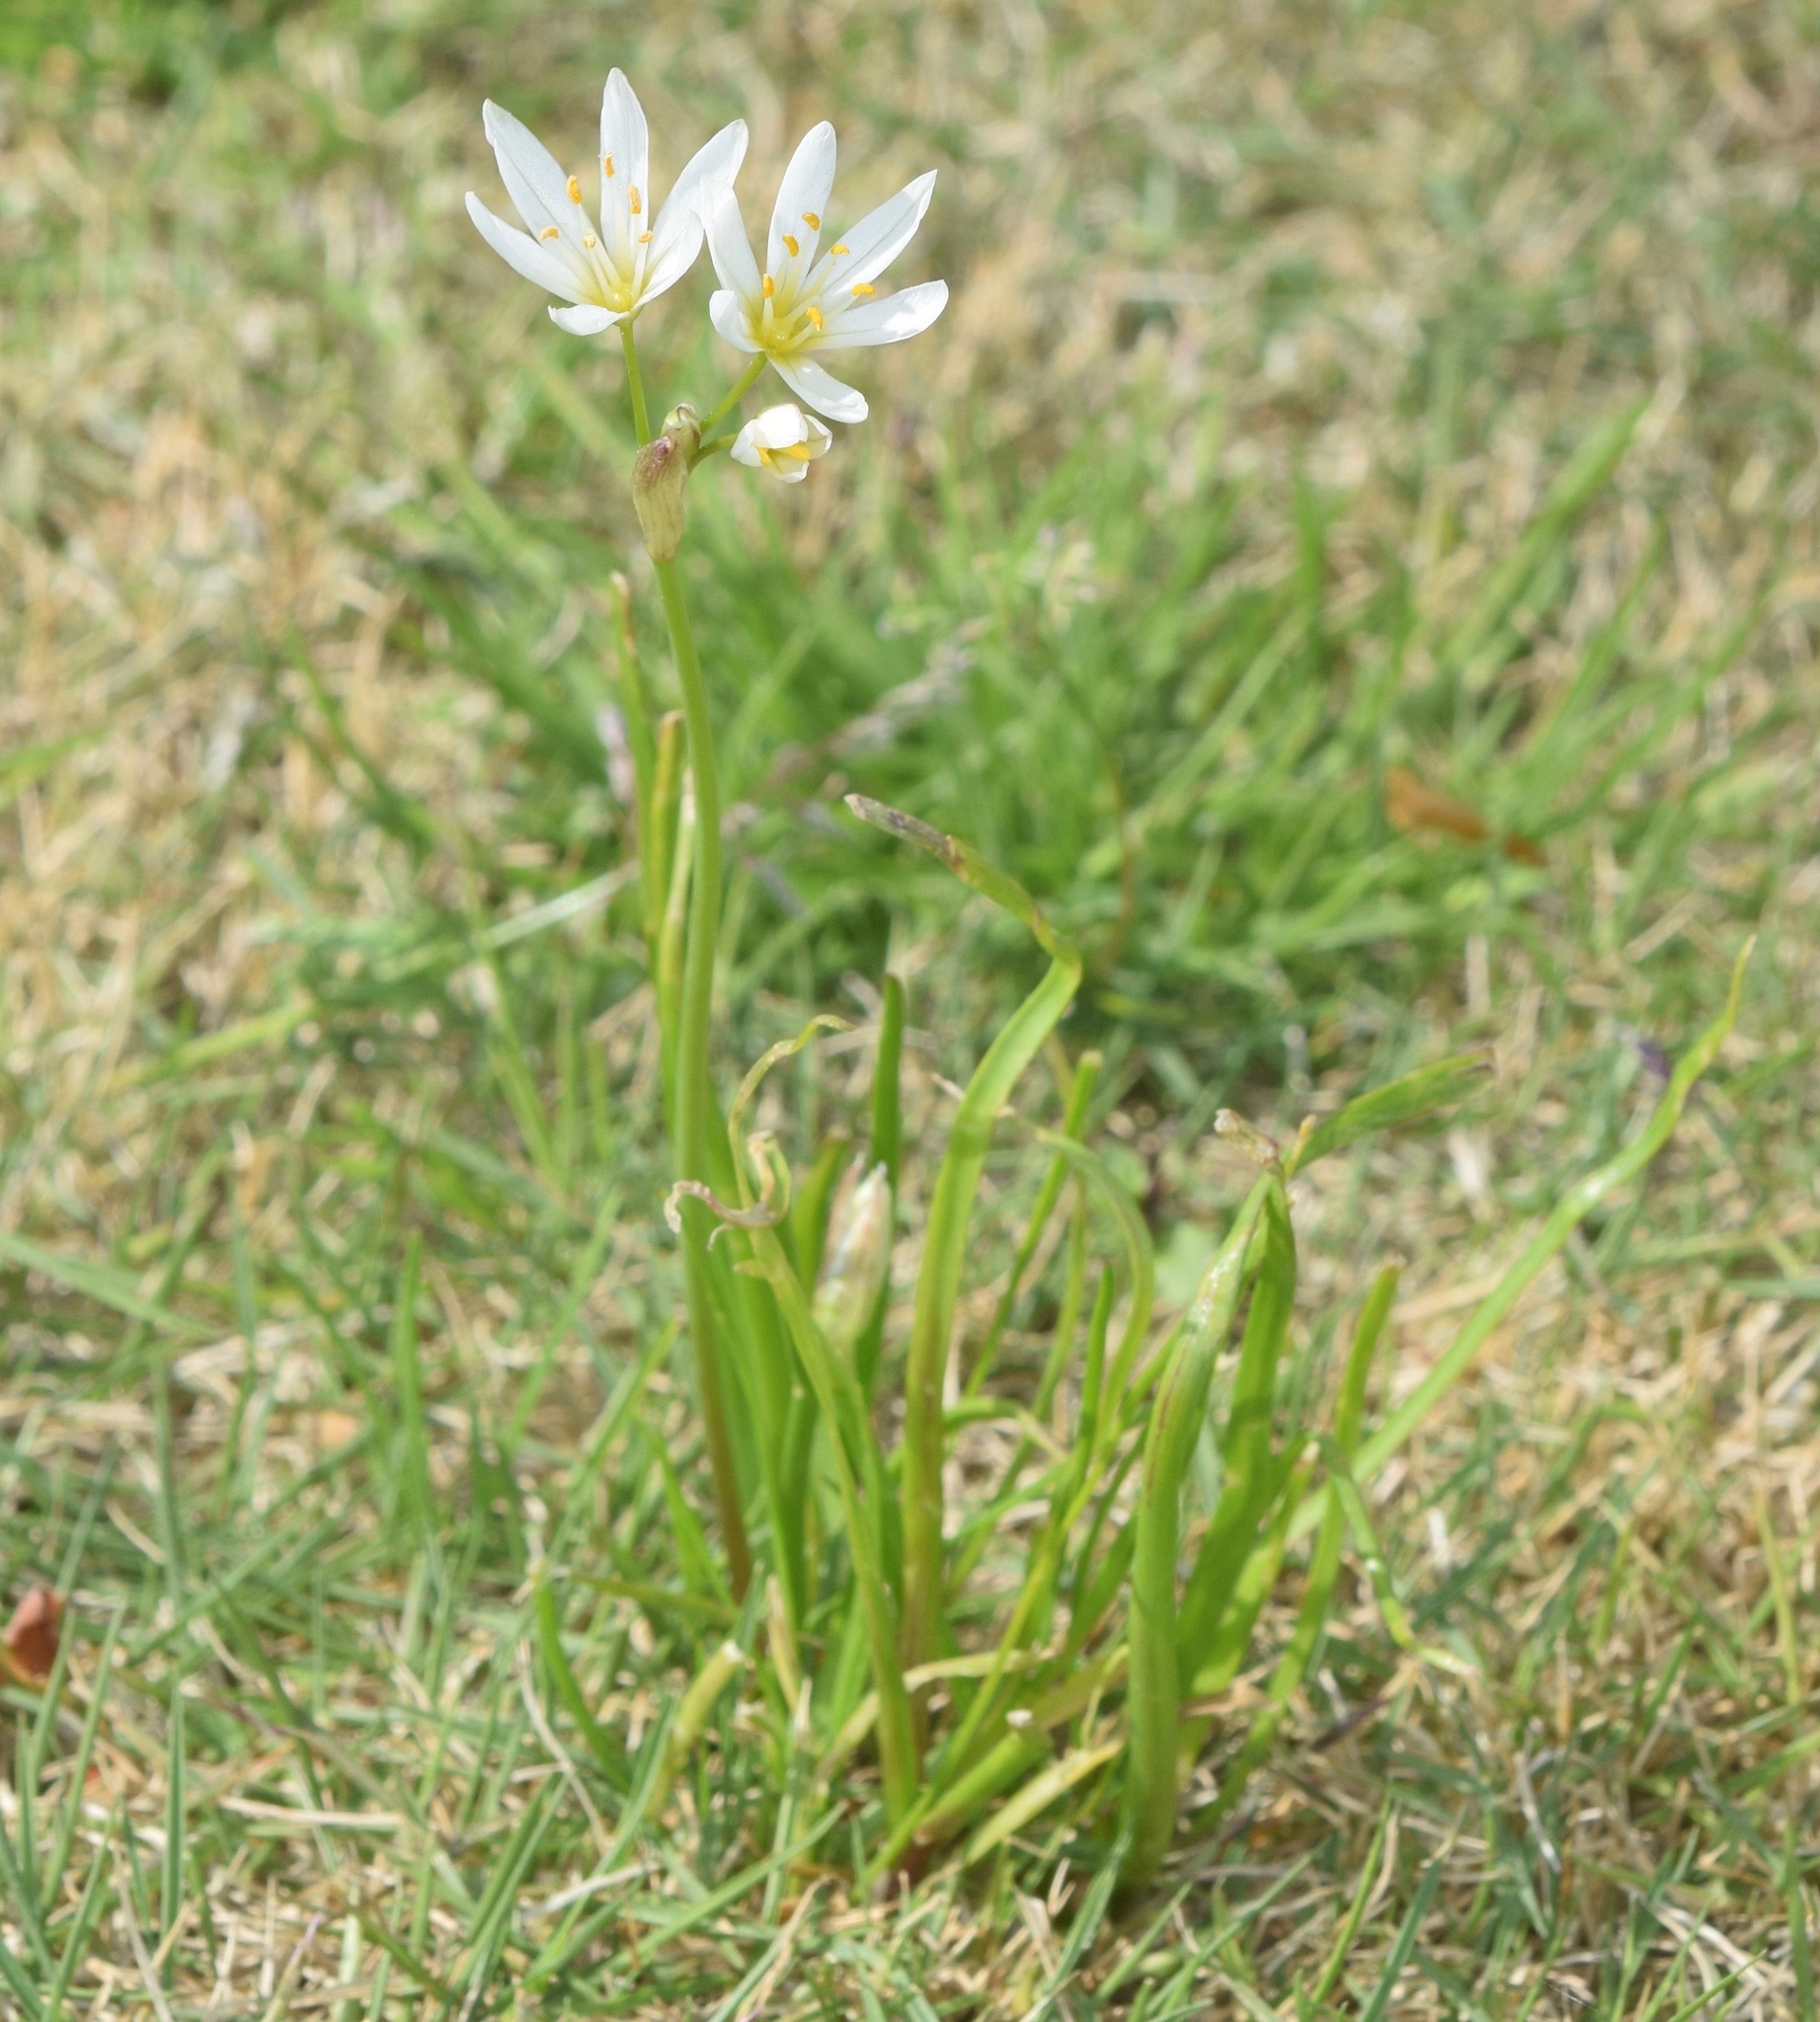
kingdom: Plantae
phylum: Tracheophyta
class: Liliopsida
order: Asparagales
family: Amaryllidaceae
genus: Nothoscordum
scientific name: Nothoscordum bivalve
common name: Crow-poison
